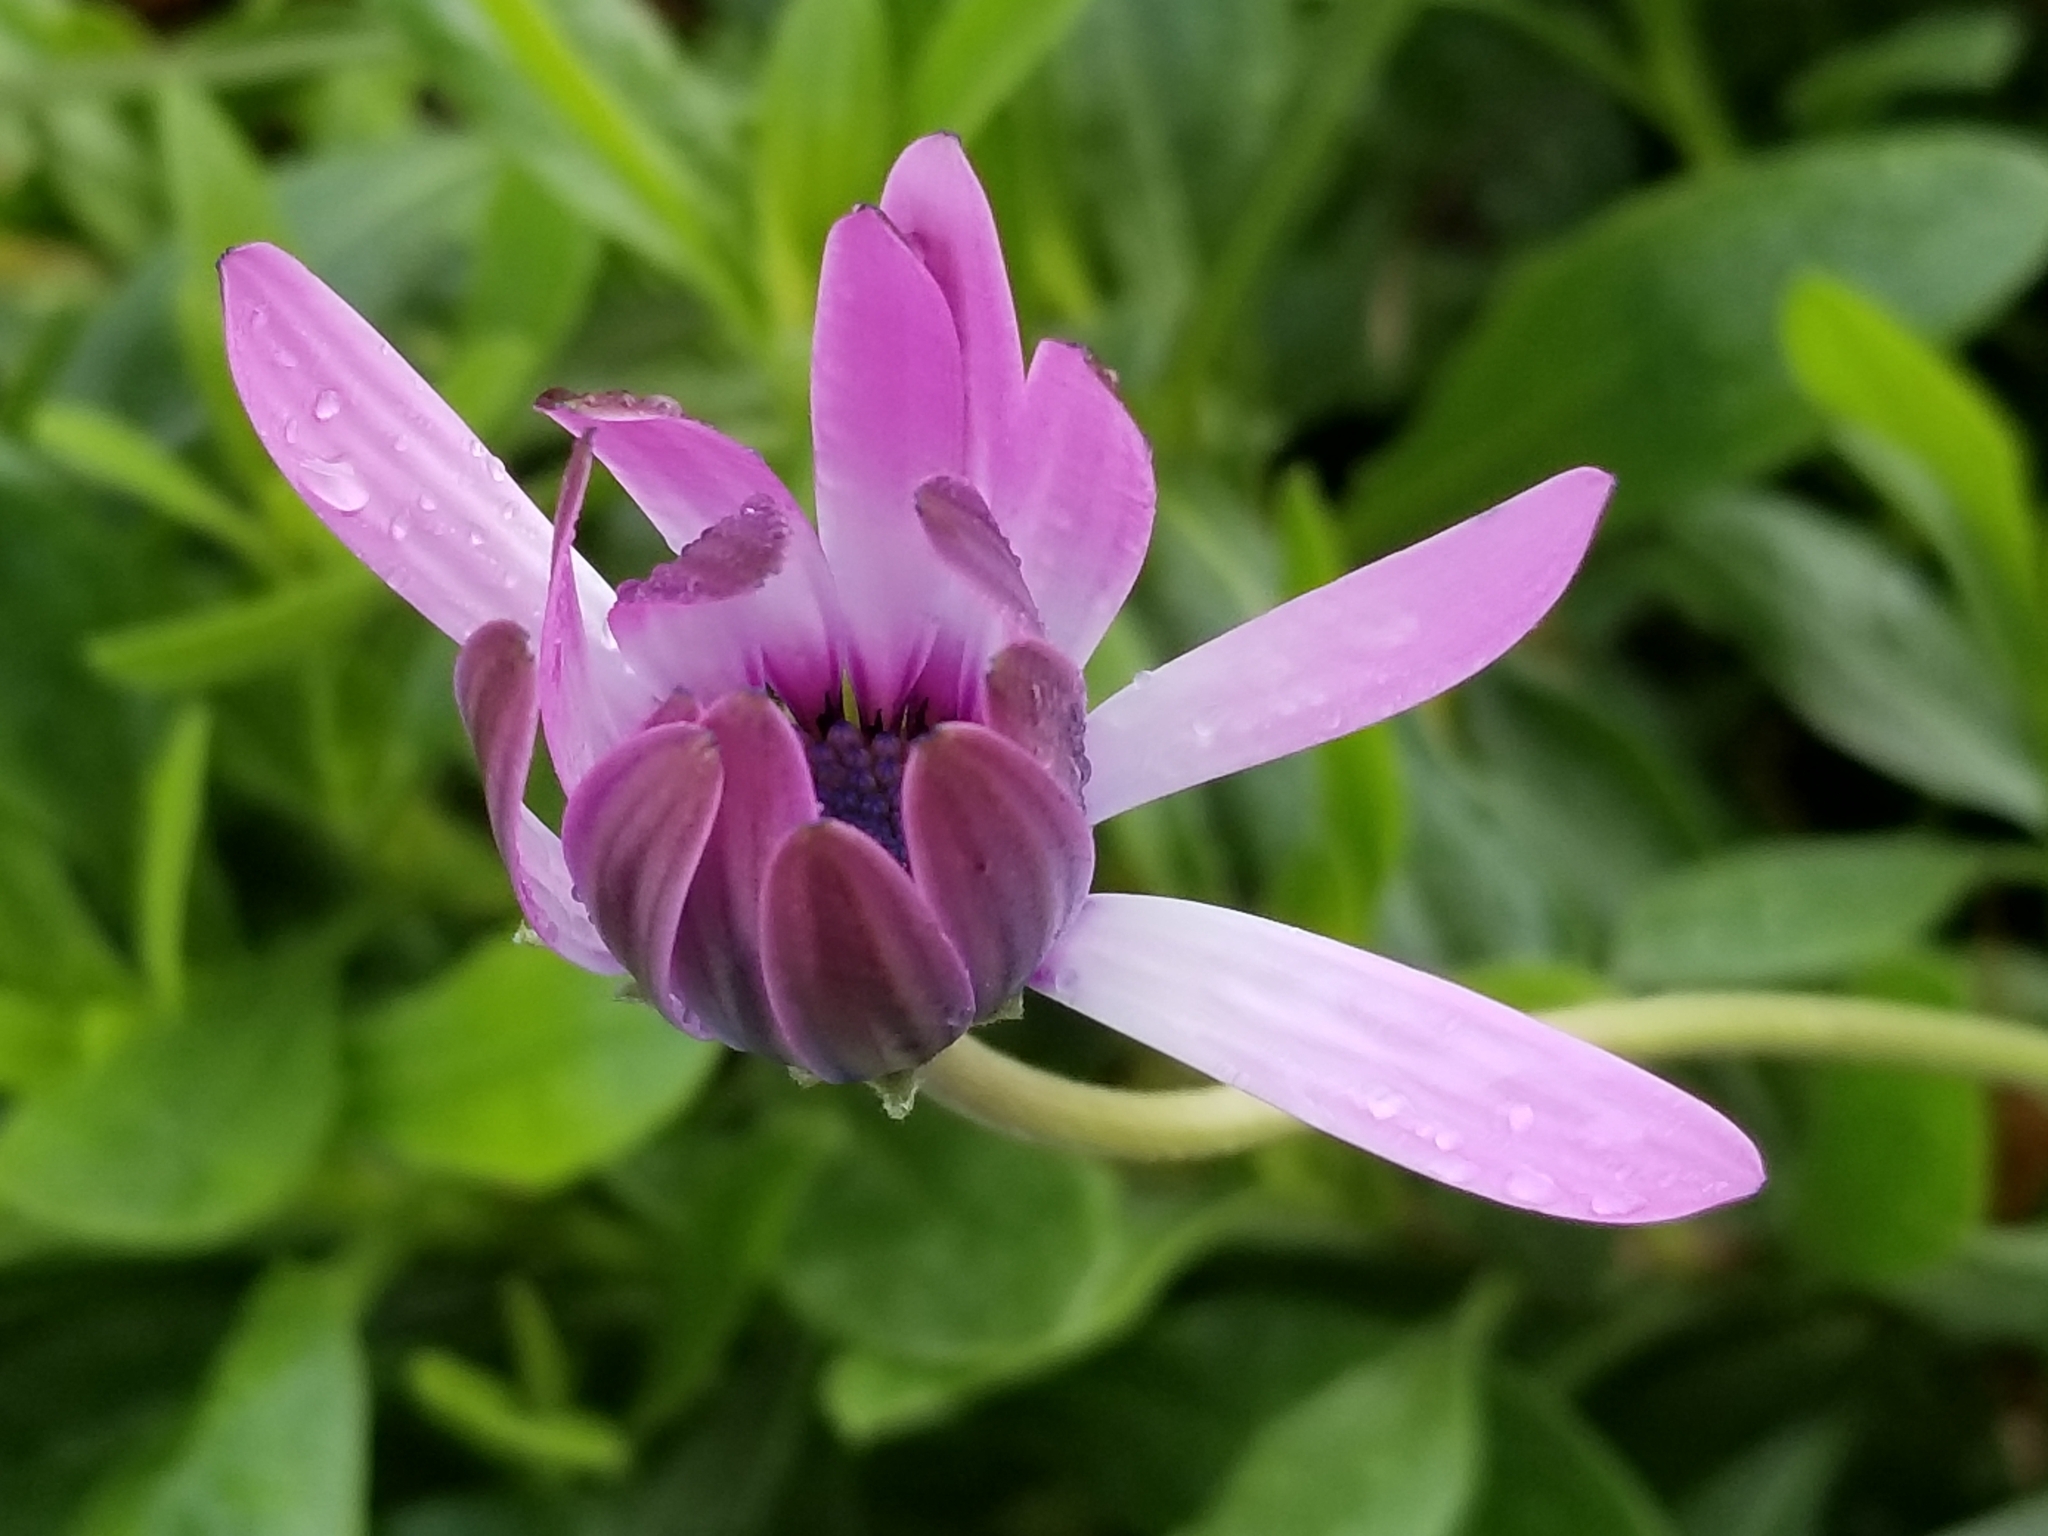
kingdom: Plantae
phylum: Tracheophyta
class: Magnoliopsida
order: Asterales
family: Asteraceae
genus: Dimorphotheca
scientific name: Dimorphotheca fruticosa
